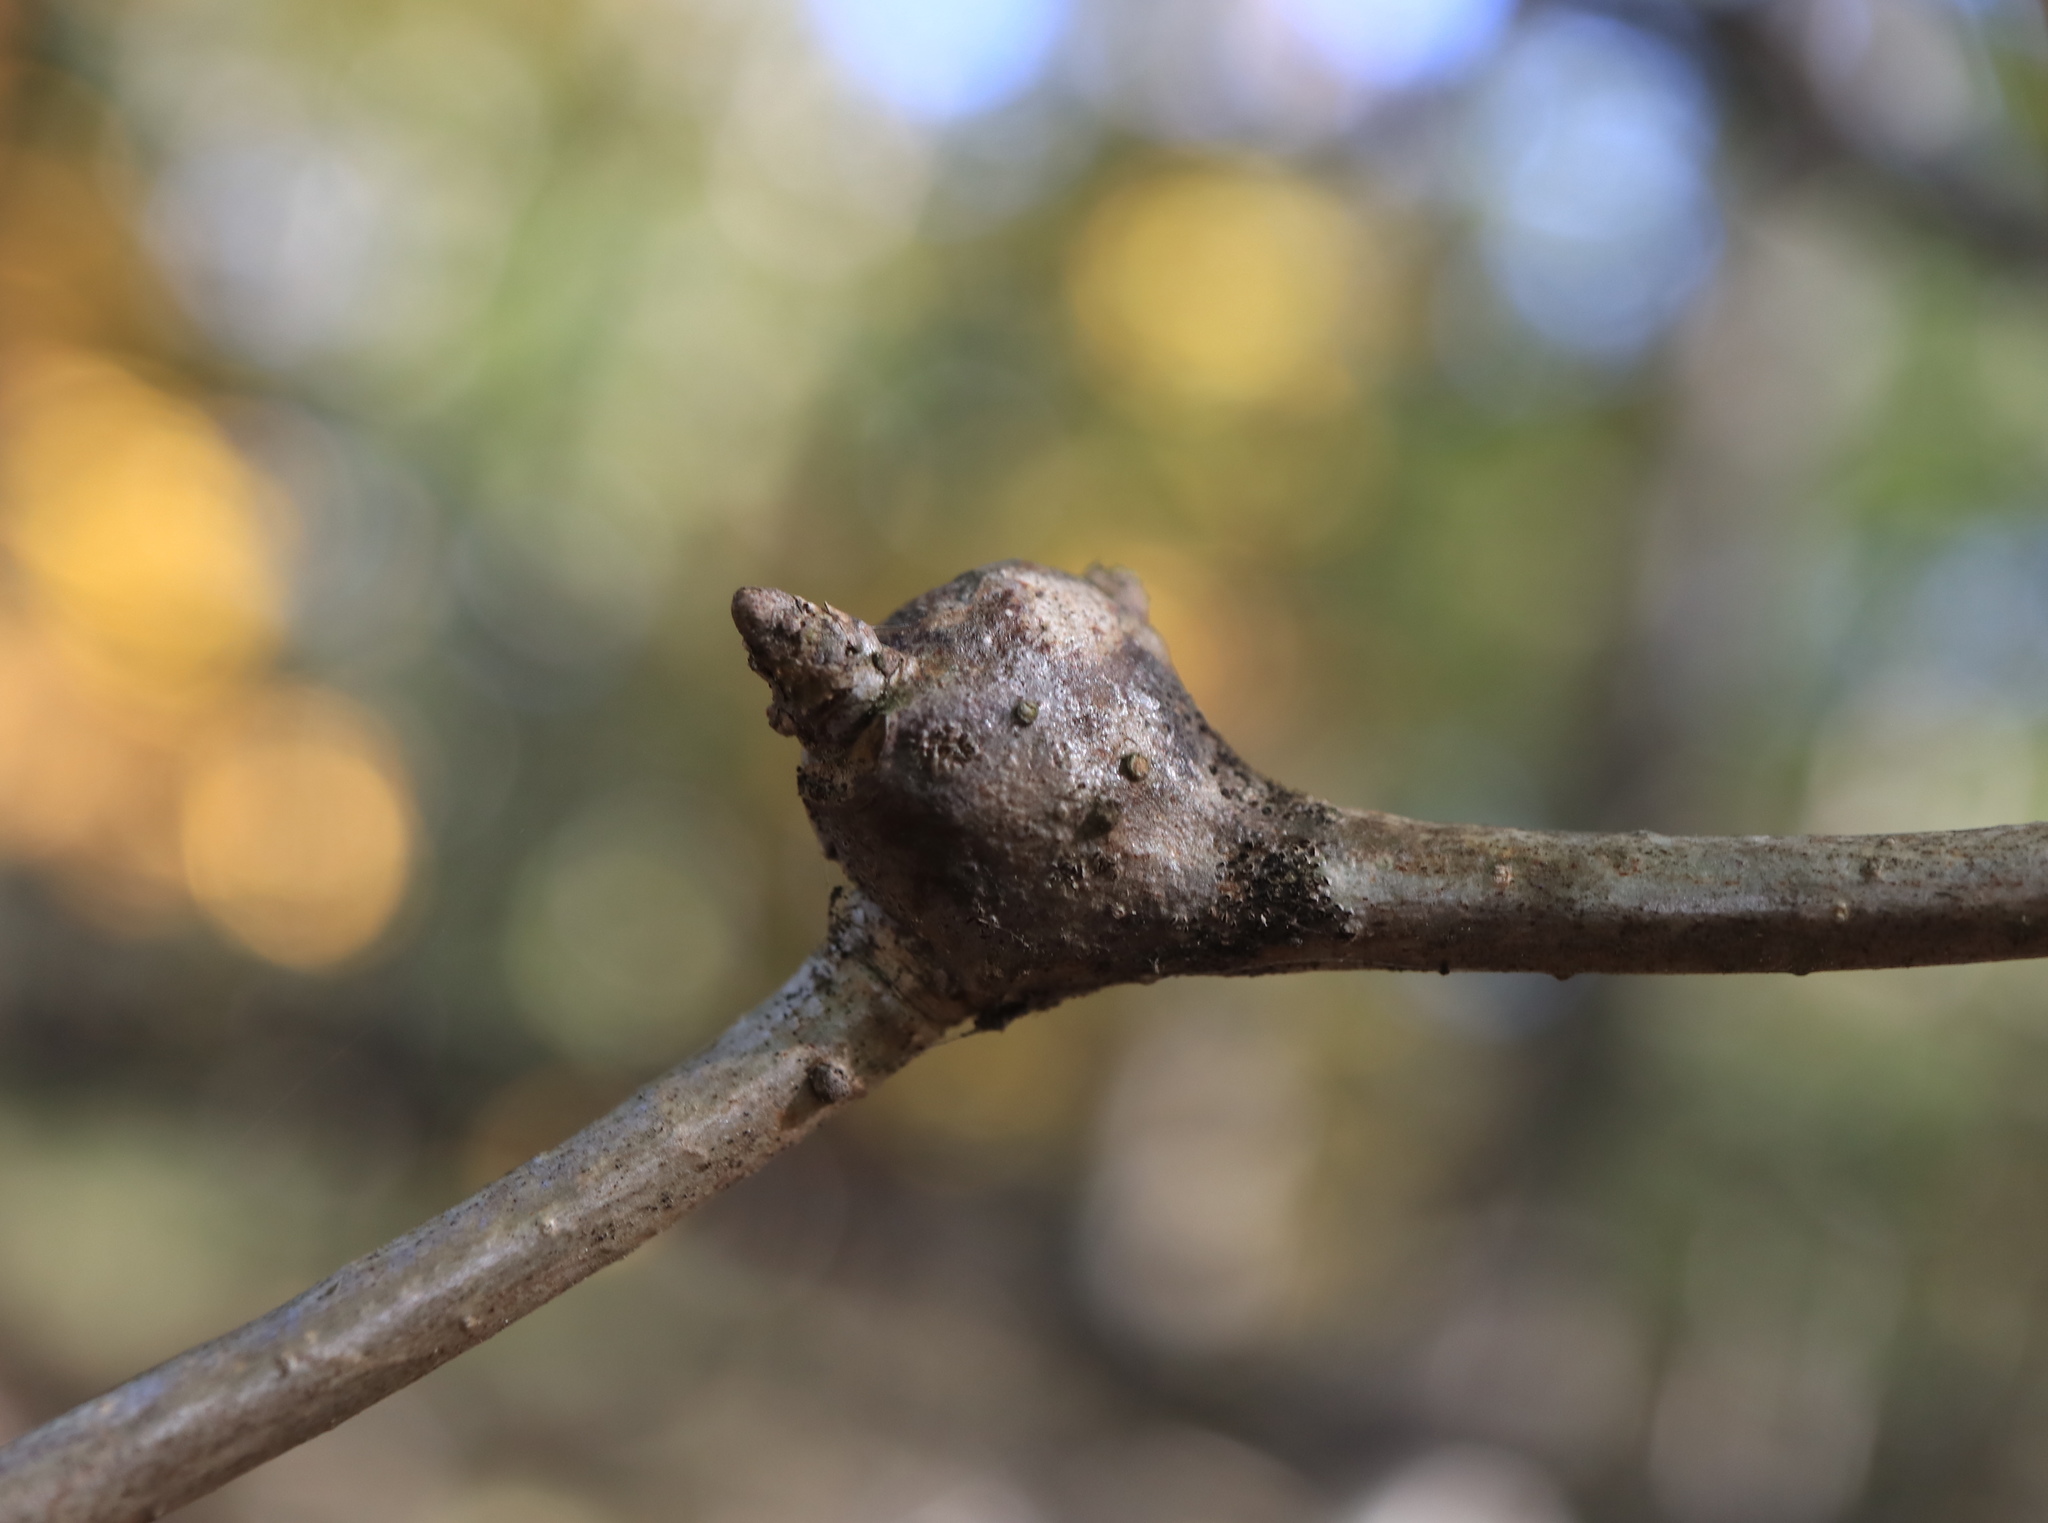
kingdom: Animalia
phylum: Arthropoda
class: Insecta
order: Hymenoptera
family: Cynipidae
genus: Callirhytis
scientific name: Callirhytis clavula
